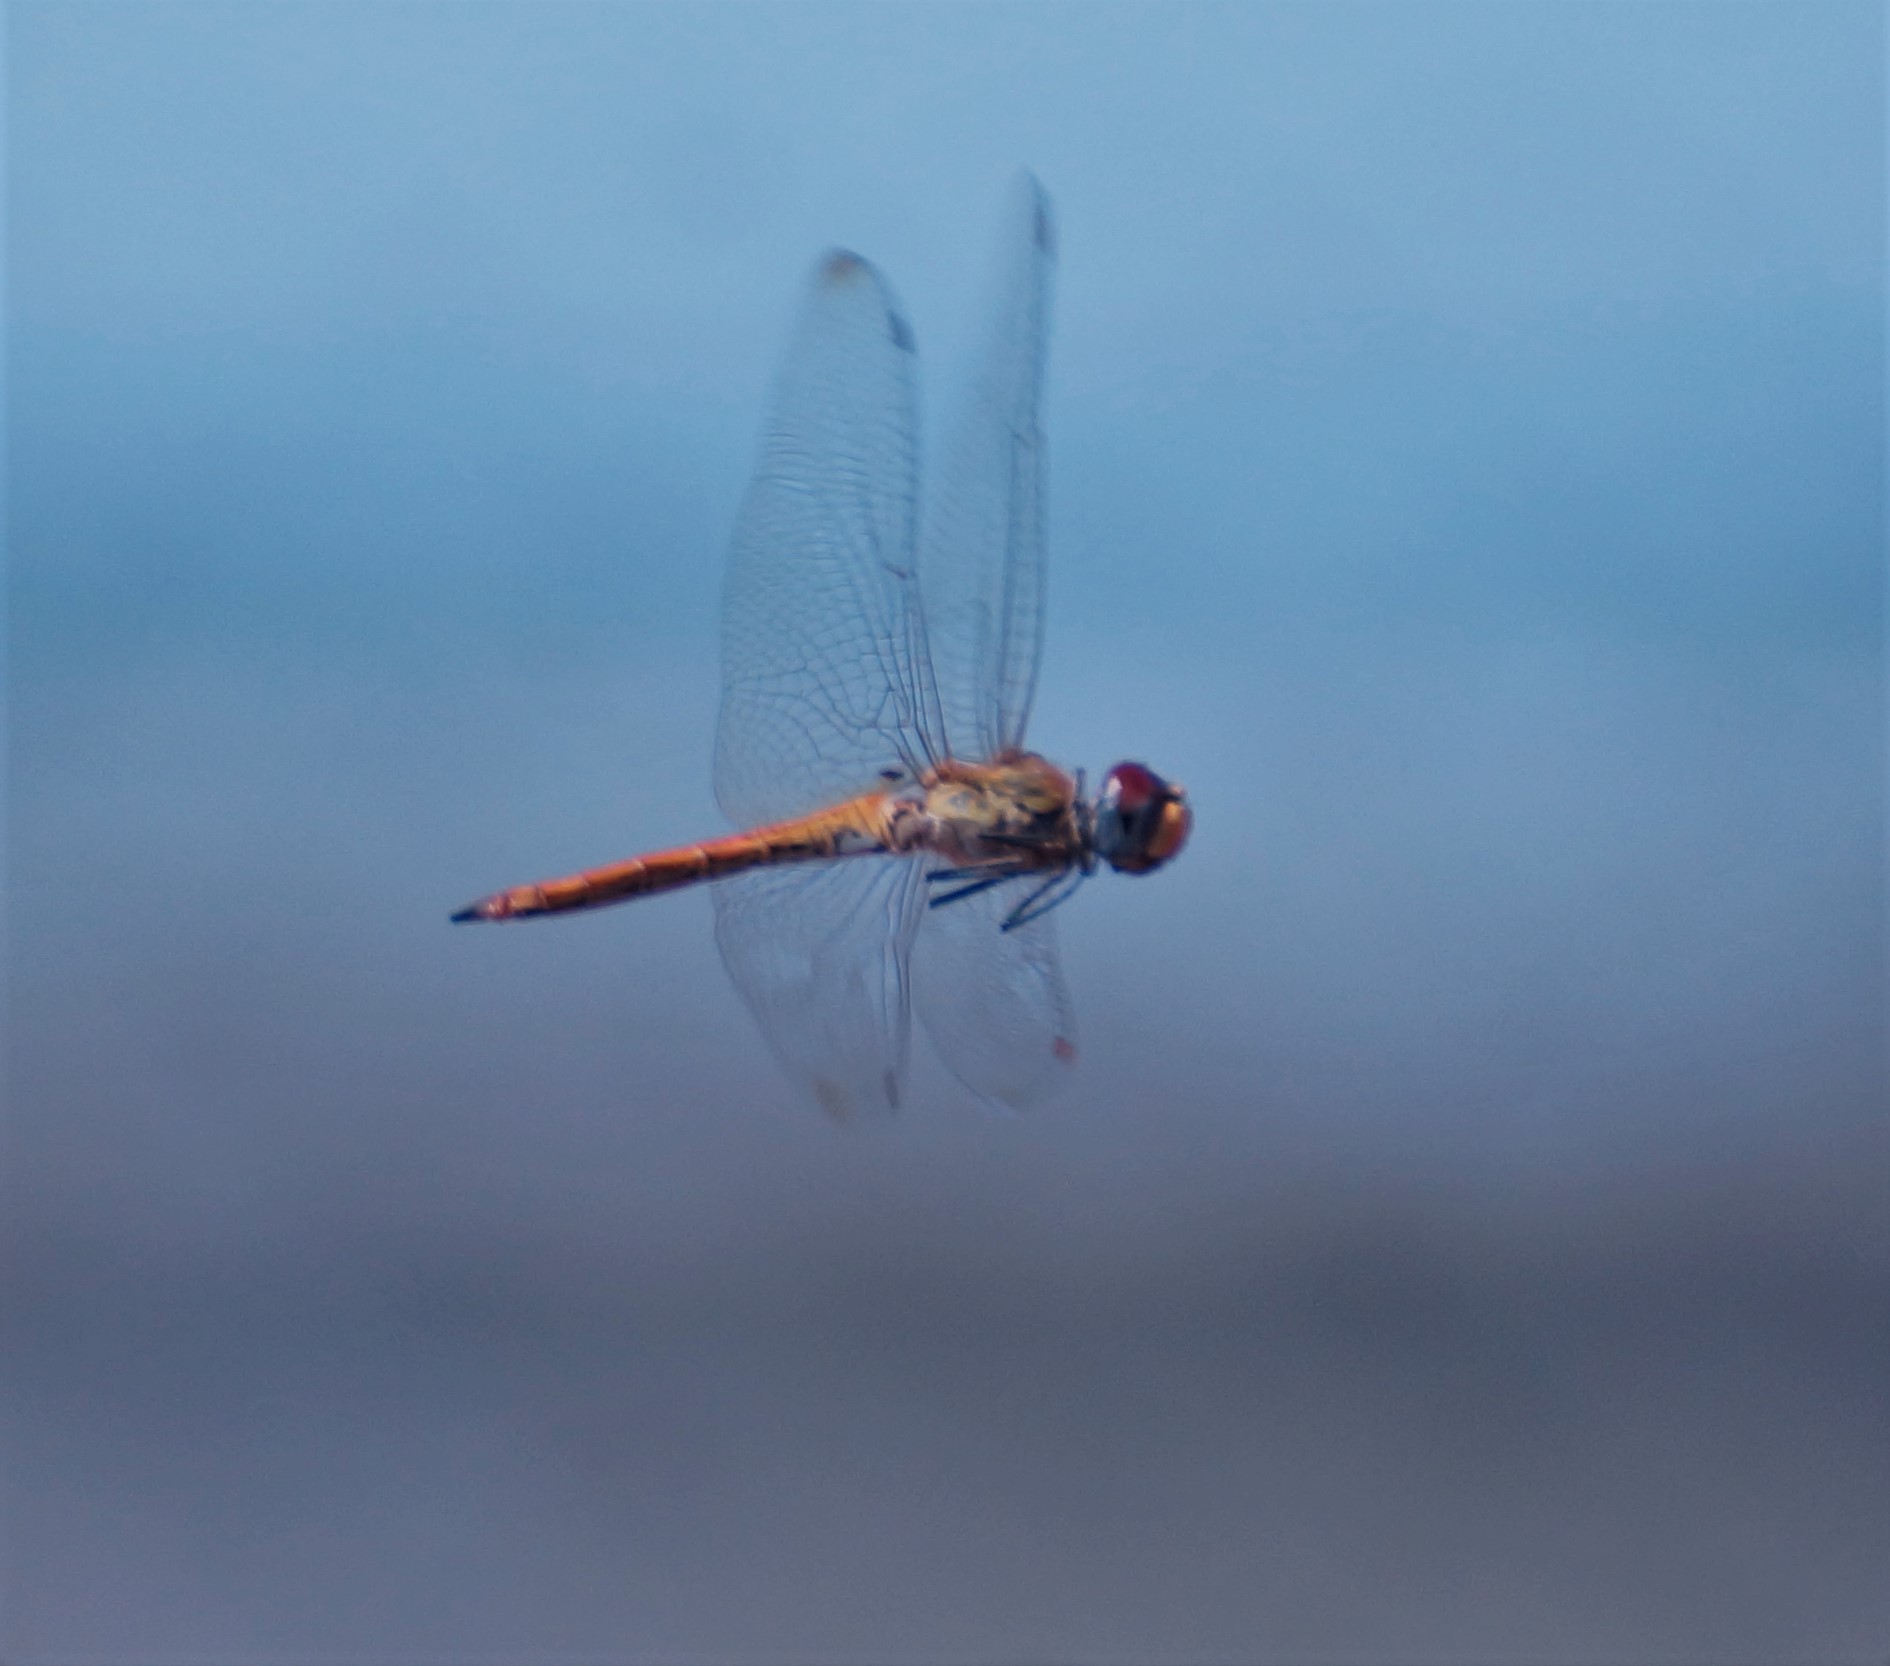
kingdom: Animalia
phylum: Arthropoda
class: Insecta
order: Odonata
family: Libellulidae
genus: Pantala
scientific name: Pantala flavescens
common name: Wandering glider
